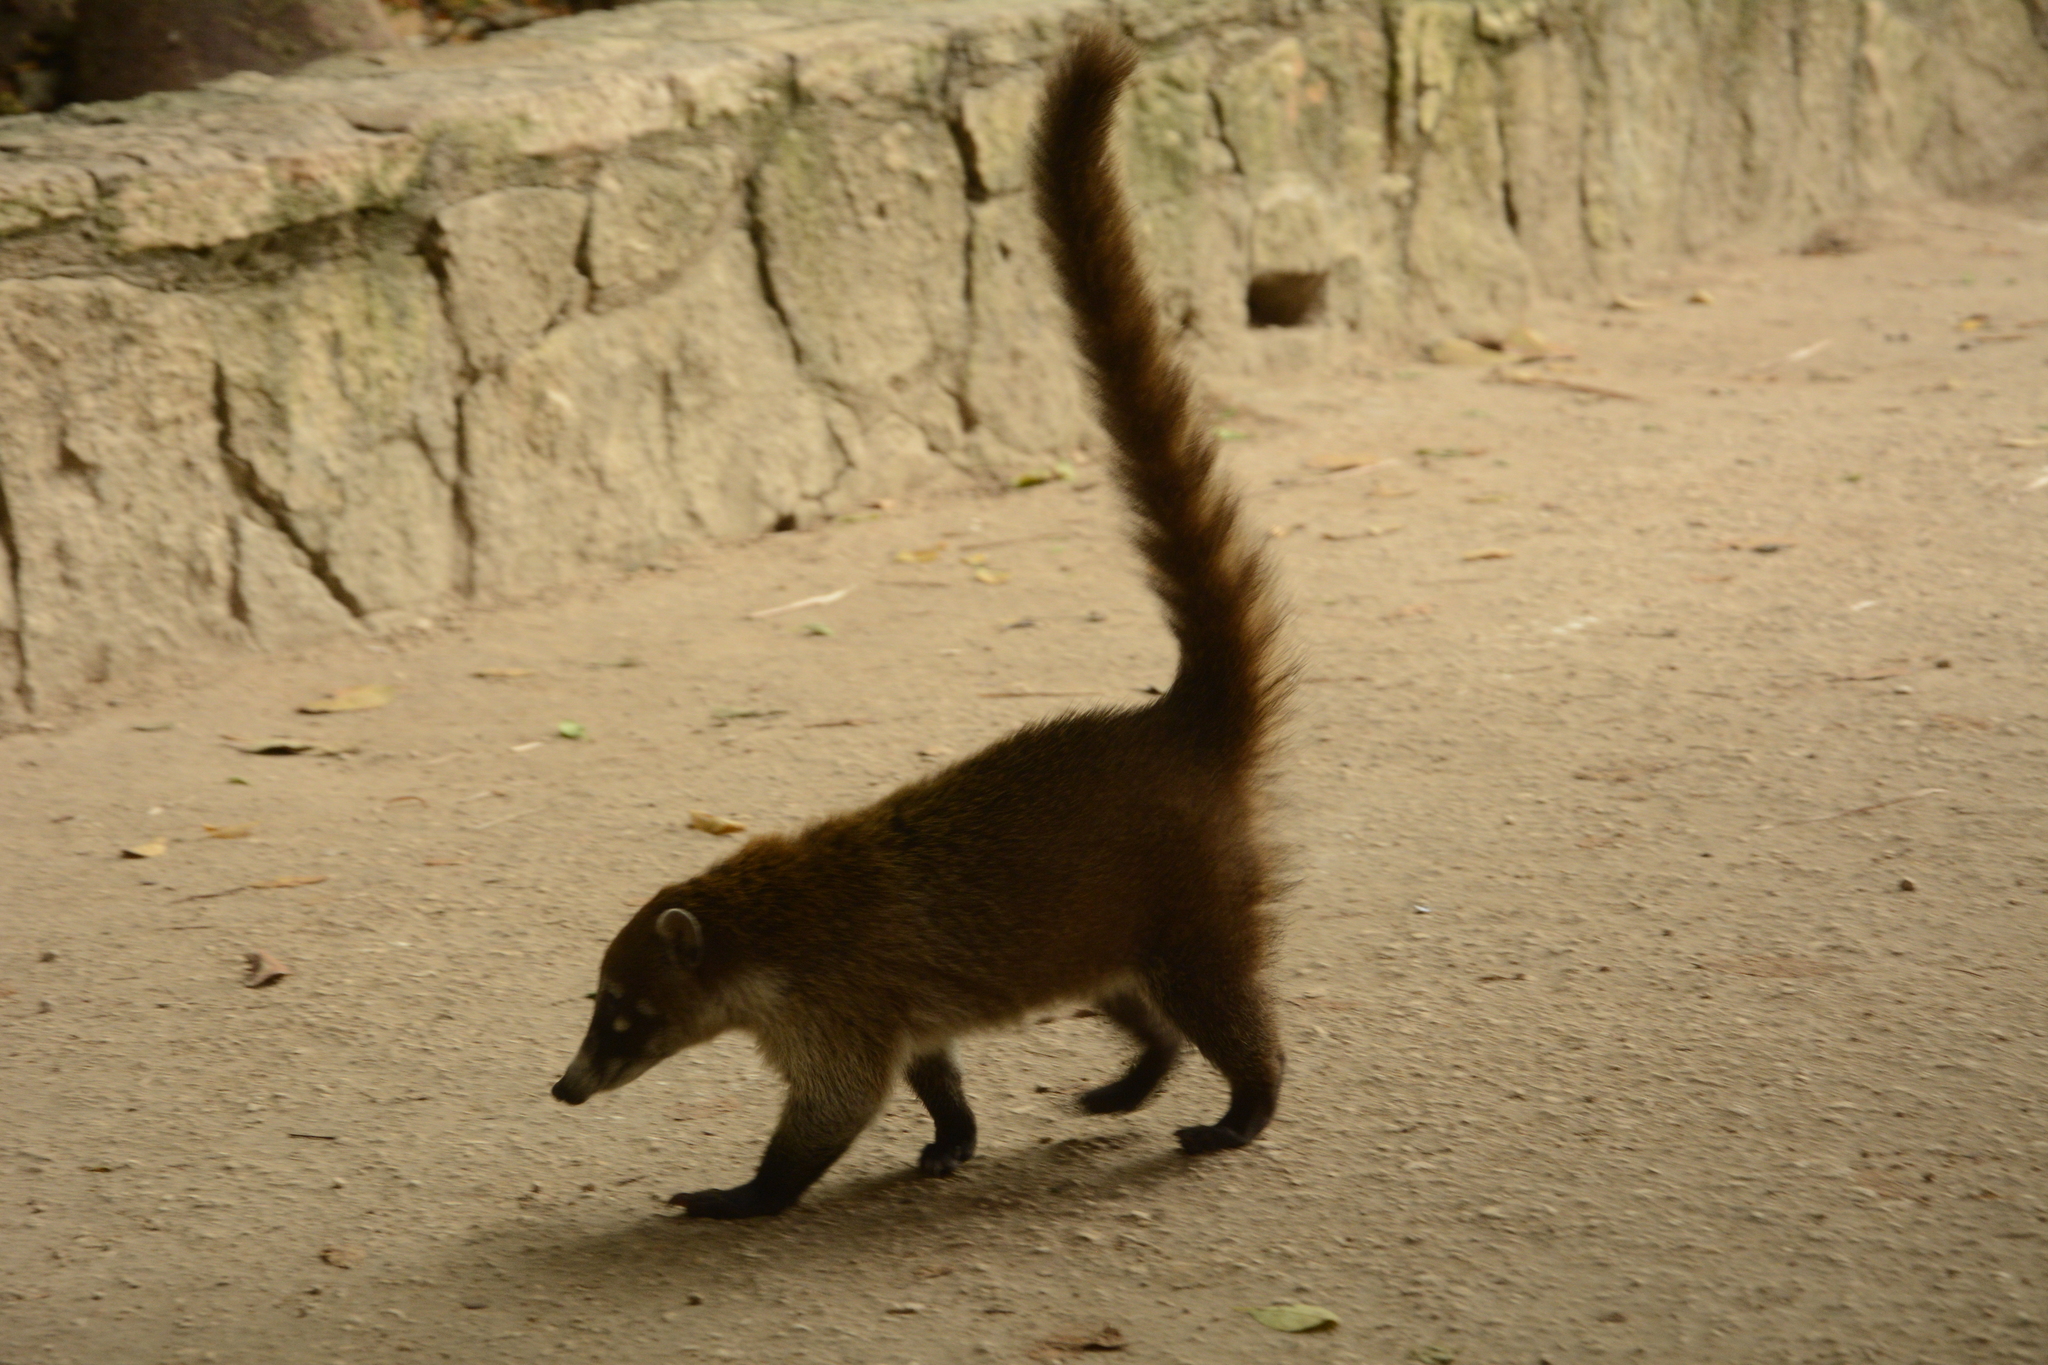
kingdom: Animalia
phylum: Chordata
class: Mammalia
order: Carnivora
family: Procyonidae
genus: Nasua
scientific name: Nasua narica
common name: White-nosed coati
